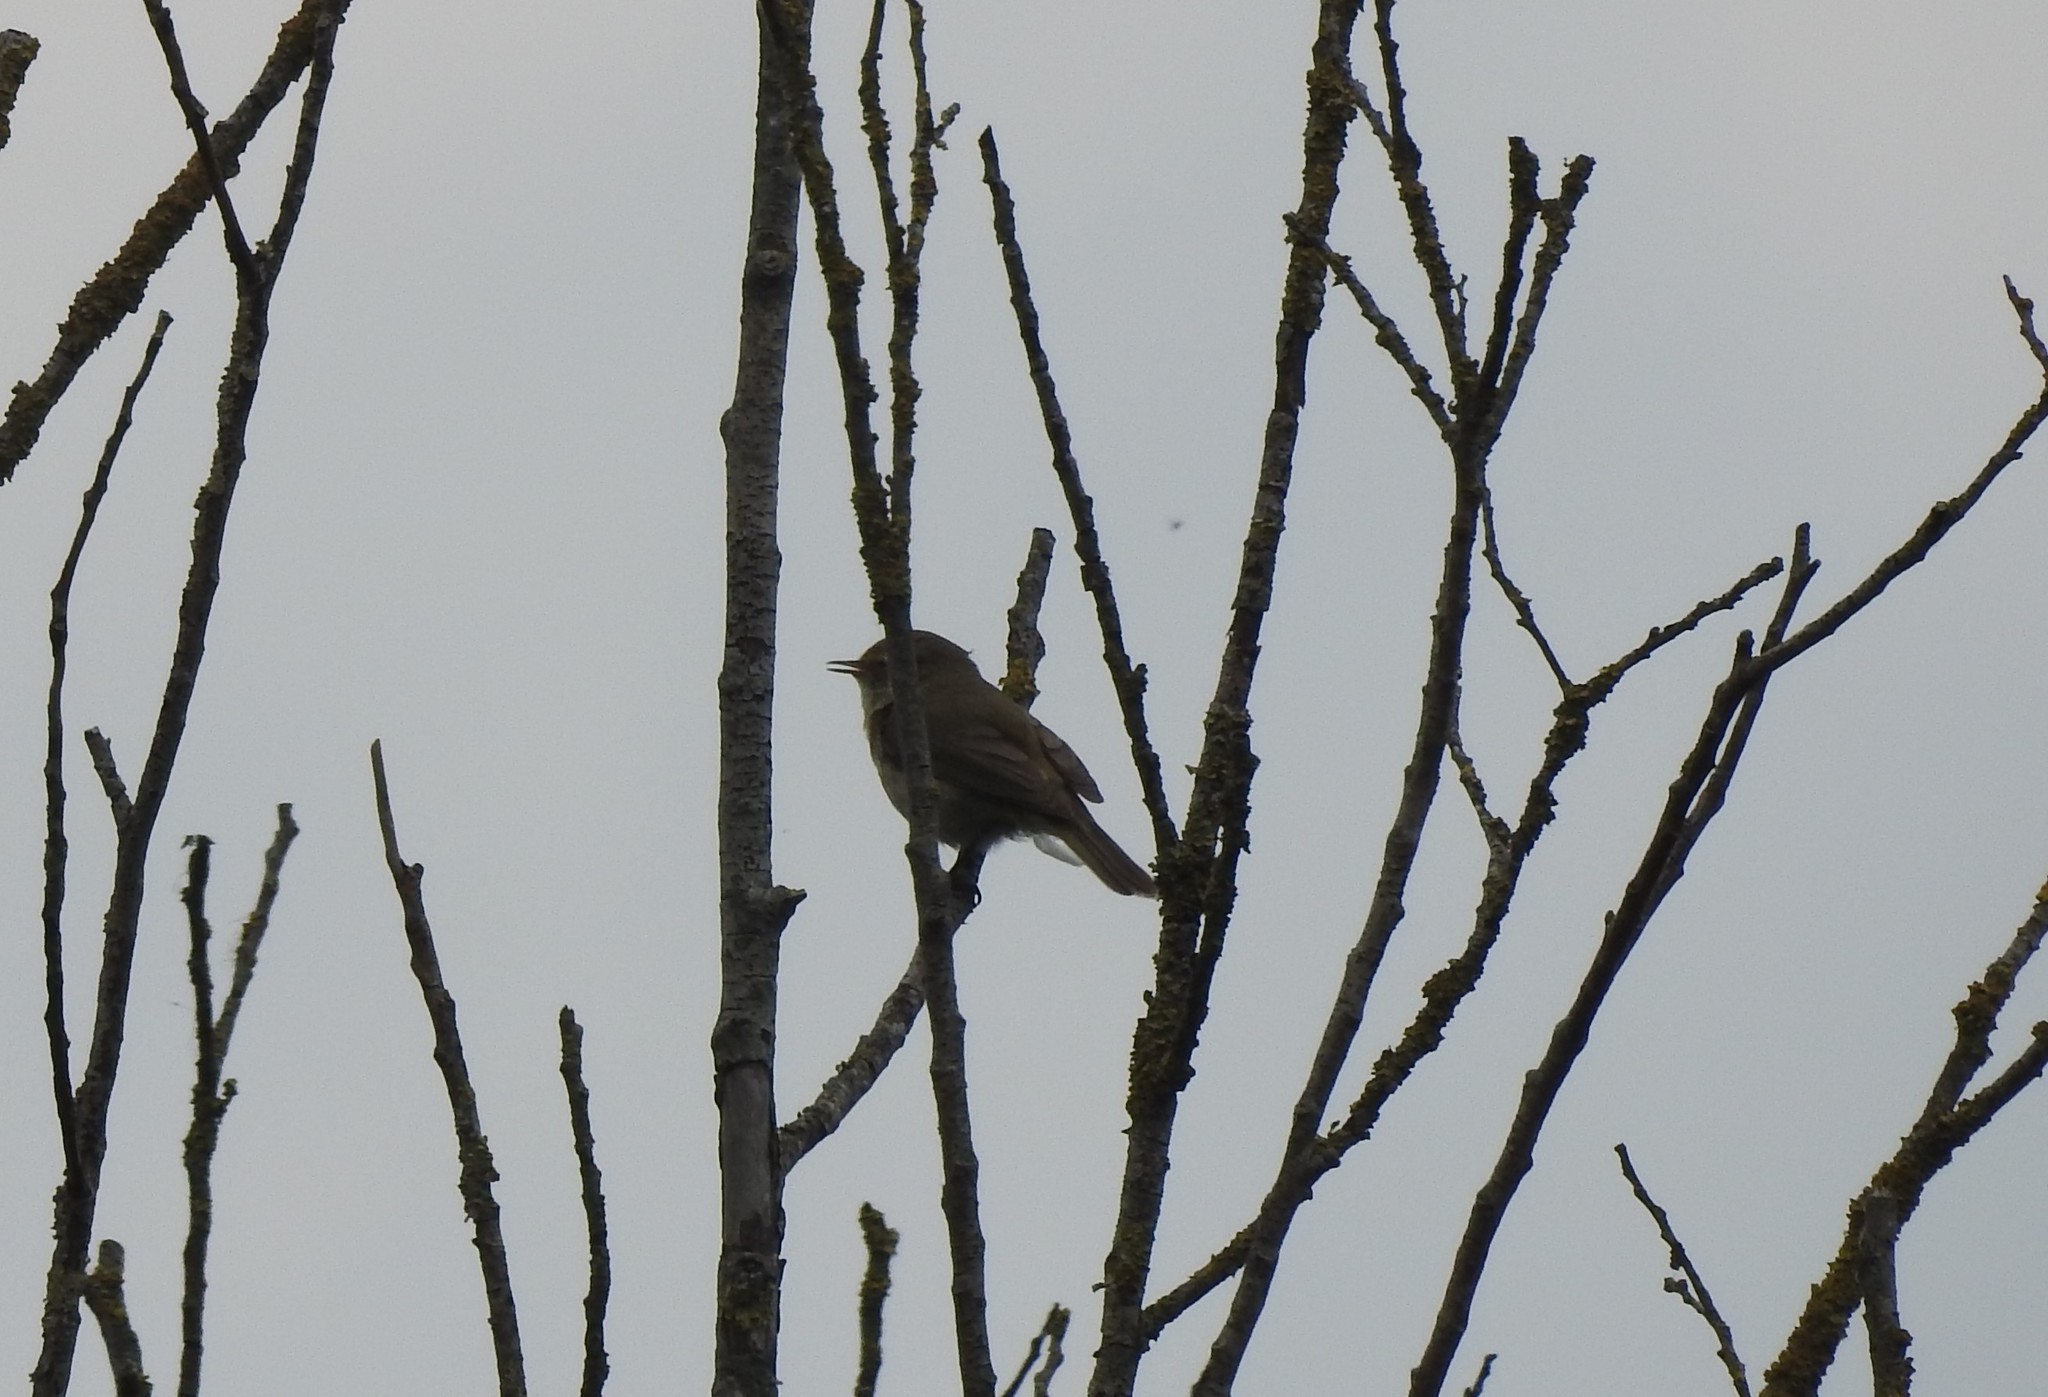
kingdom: Animalia
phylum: Chordata
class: Aves
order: Passeriformes
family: Phylloscopidae
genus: Phylloscopus
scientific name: Phylloscopus collybita
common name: Common chiffchaff
